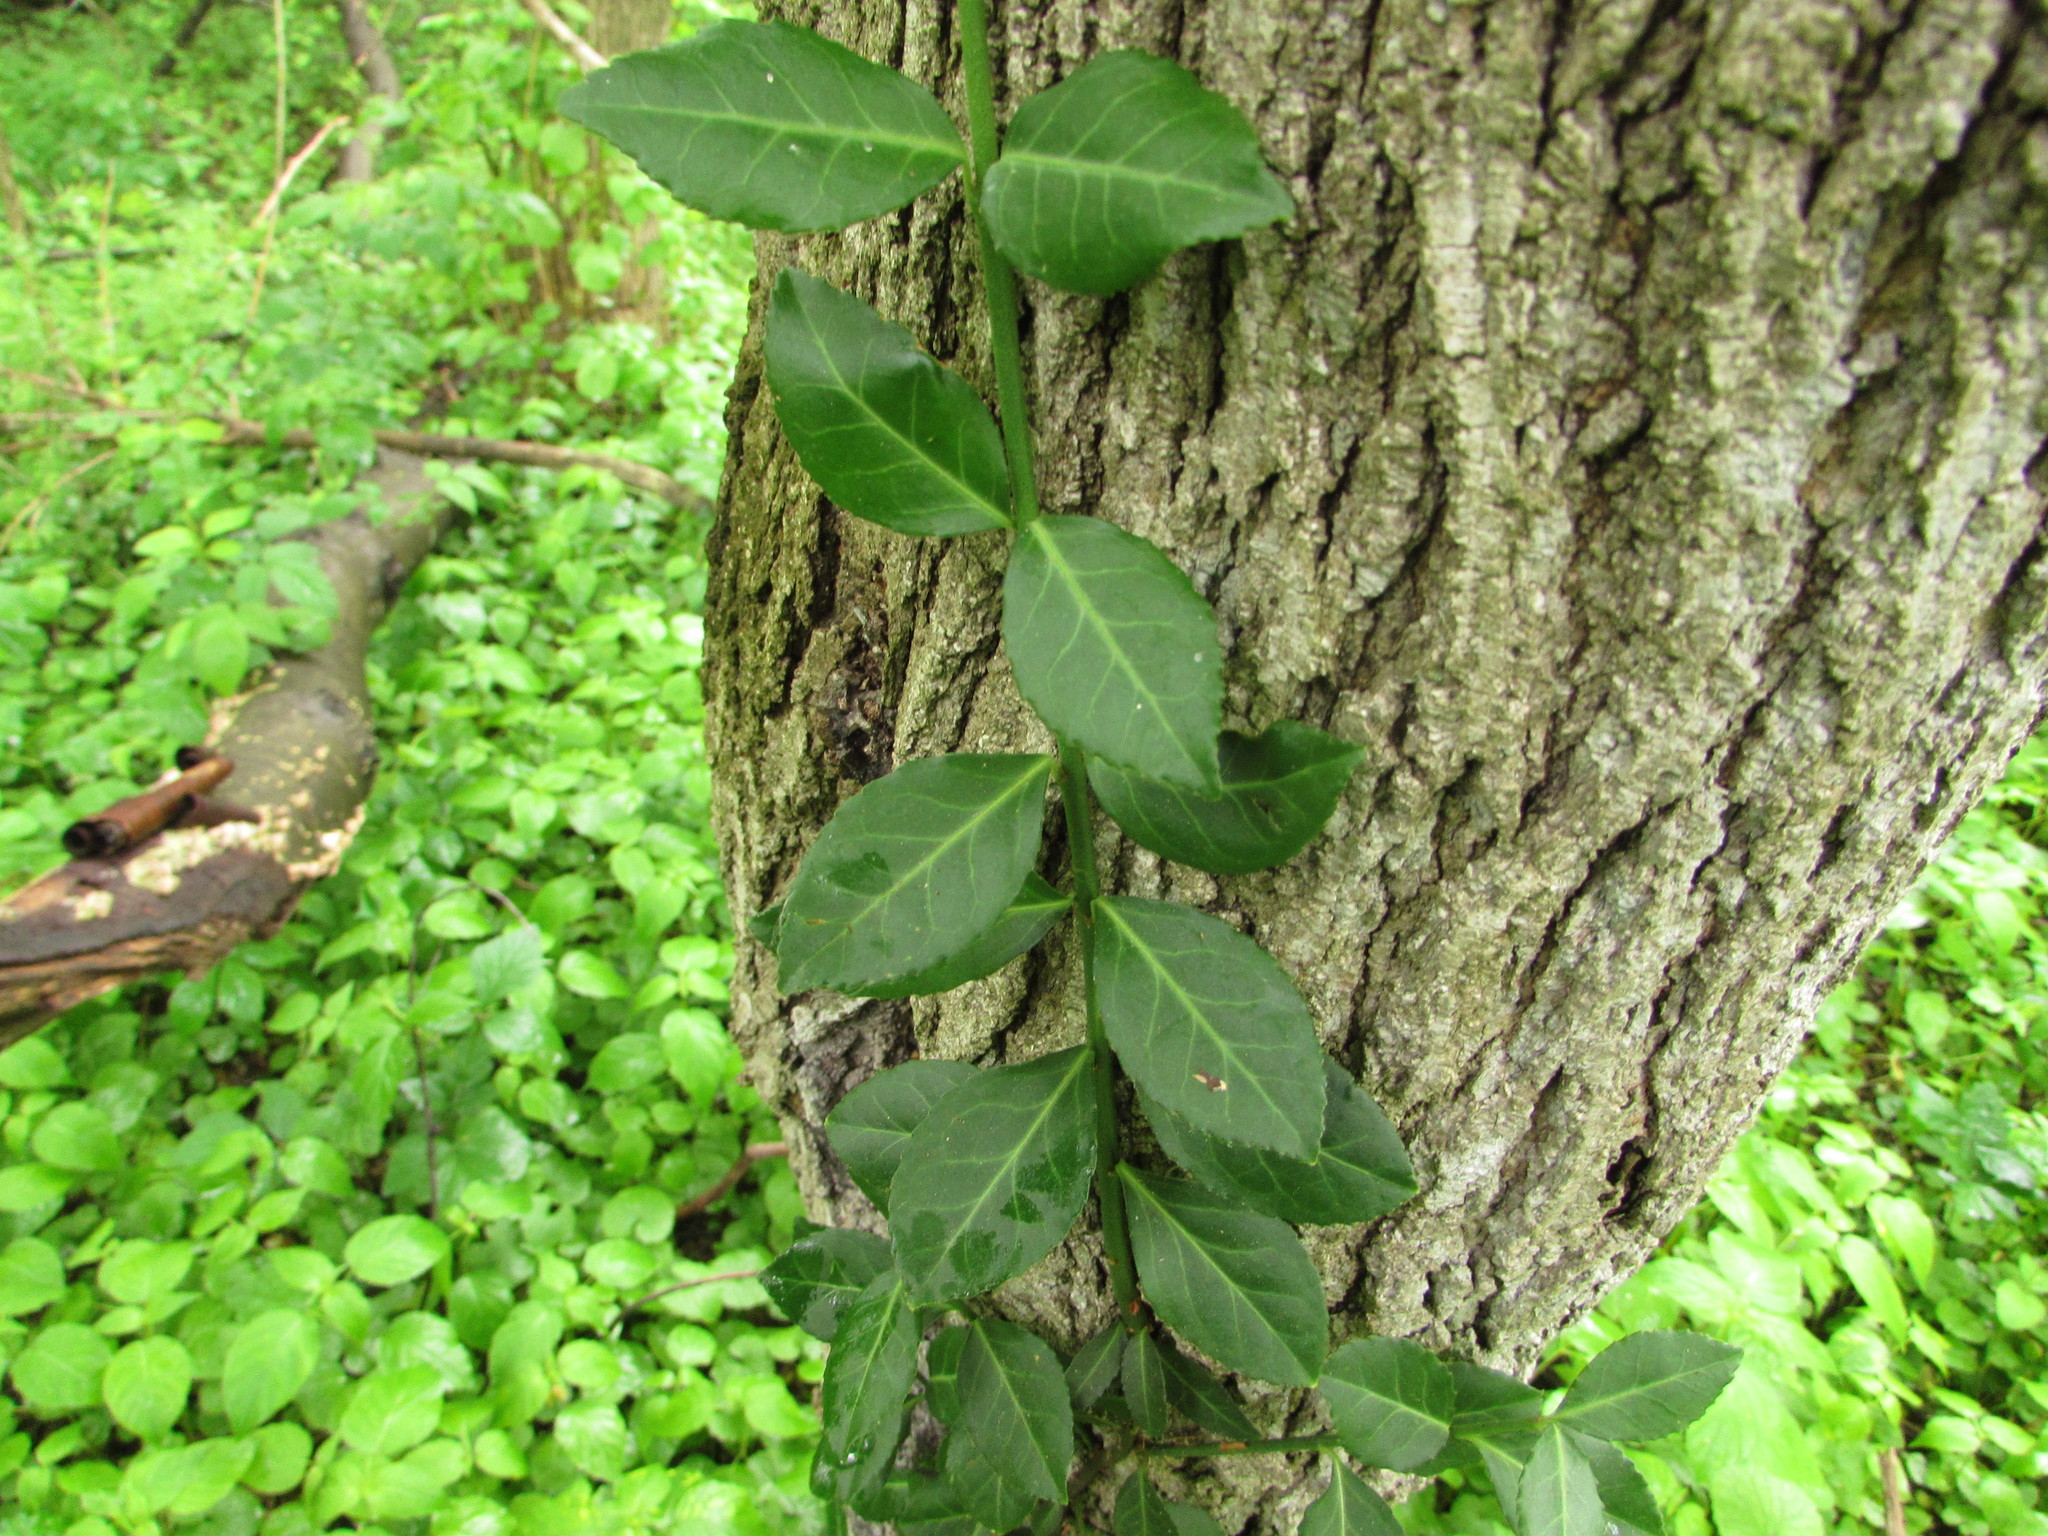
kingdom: Plantae
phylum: Tracheophyta
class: Magnoliopsida
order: Celastrales
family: Celastraceae
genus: Euonymus
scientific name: Euonymus fortunei
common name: Climbing euonymus
